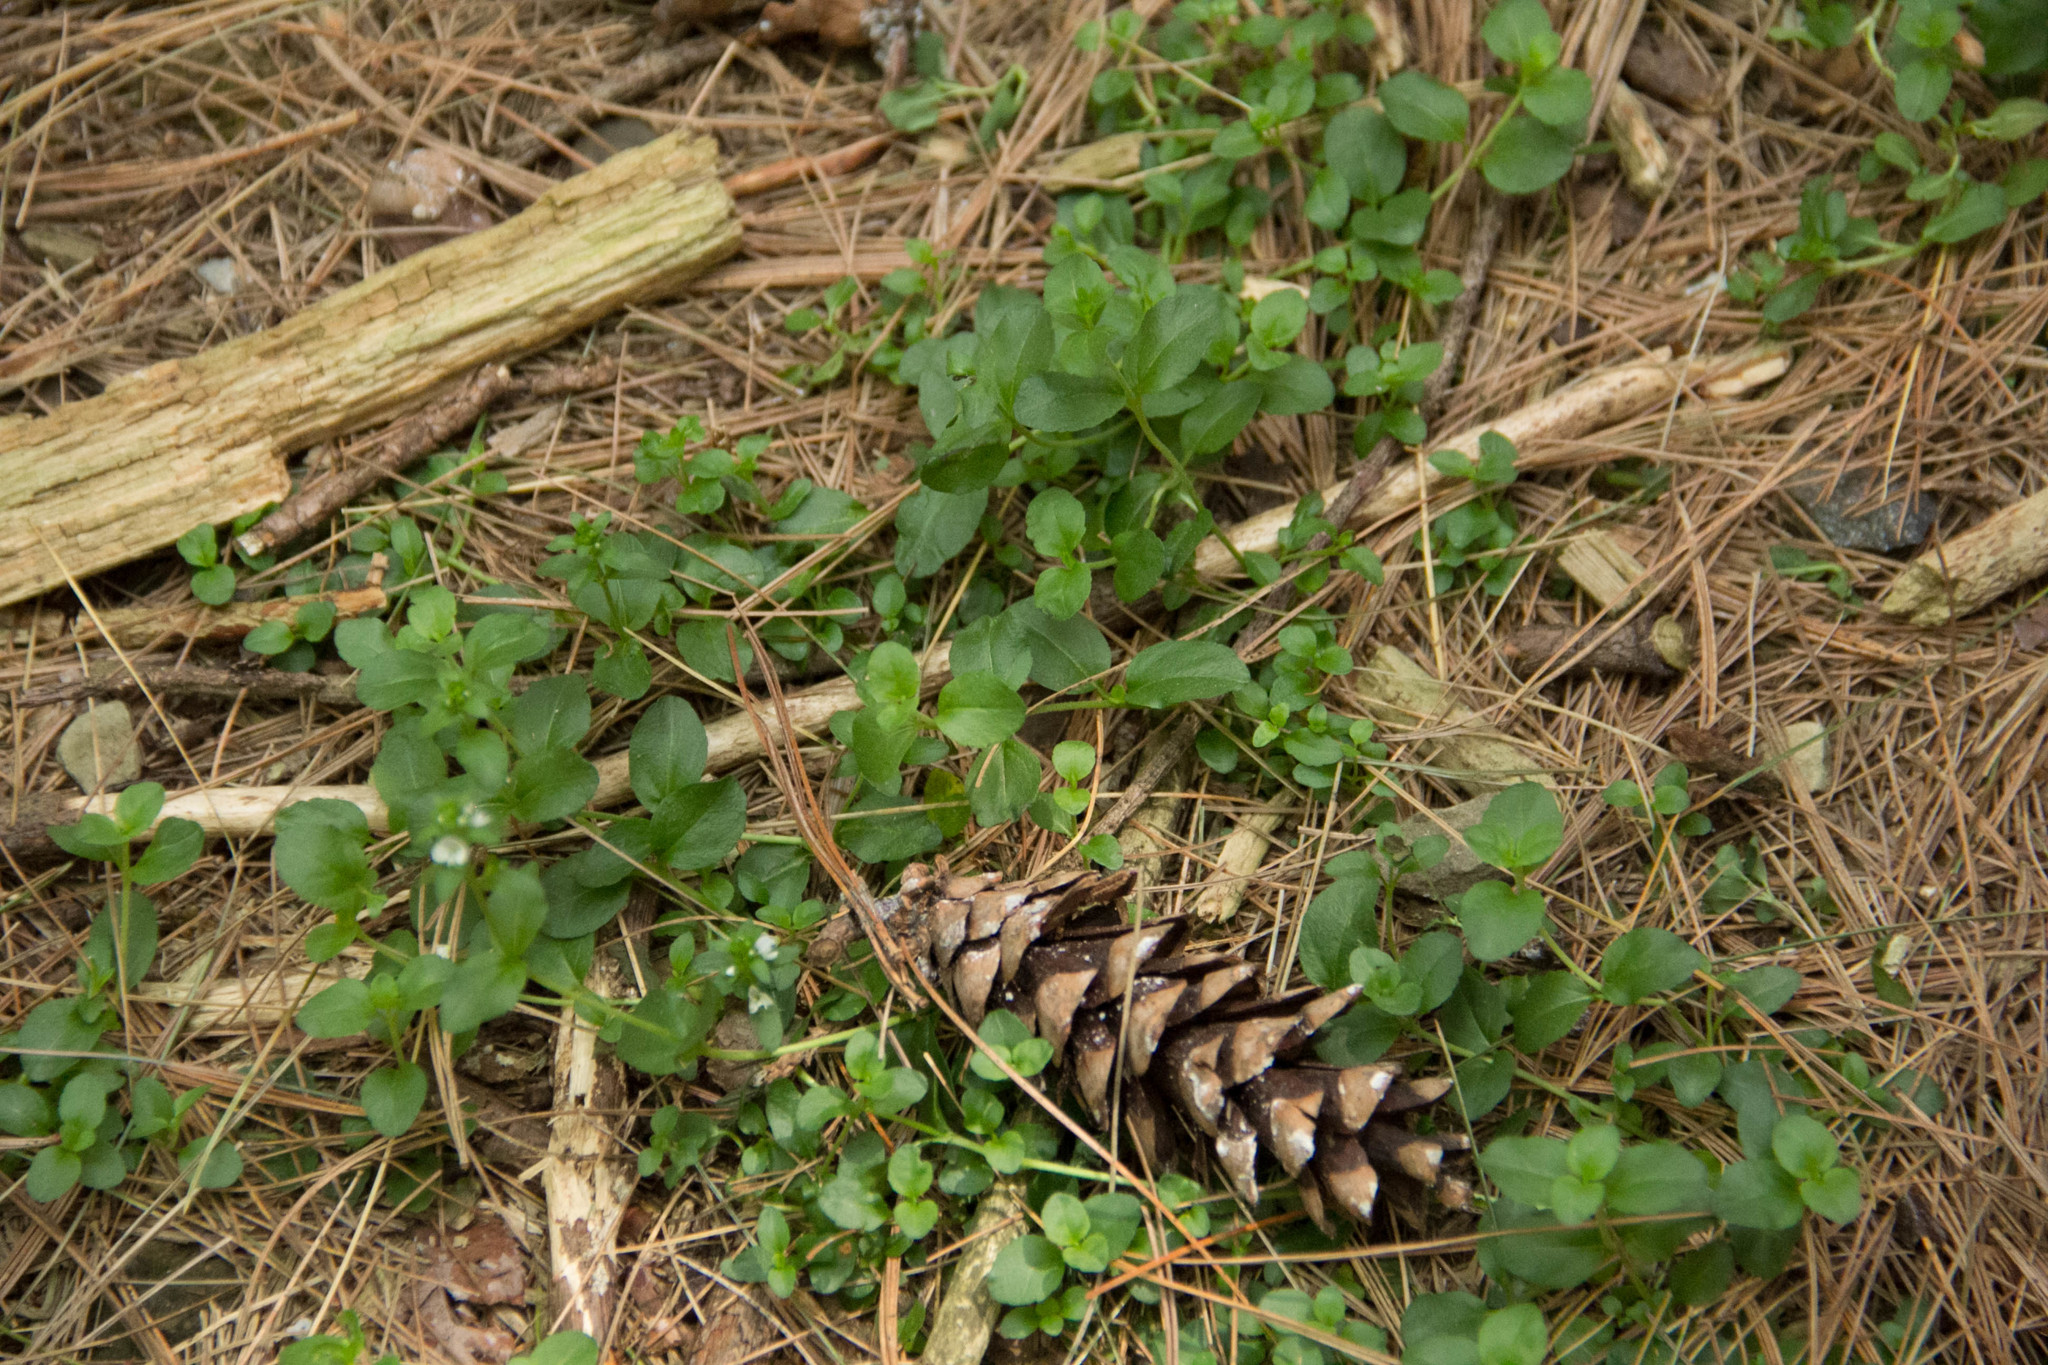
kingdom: Plantae
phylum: Tracheophyta
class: Magnoliopsida
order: Lamiales
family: Plantaginaceae
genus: Veronica
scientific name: Veronica serpyllifolia
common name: Thyme-leaved speedwell
